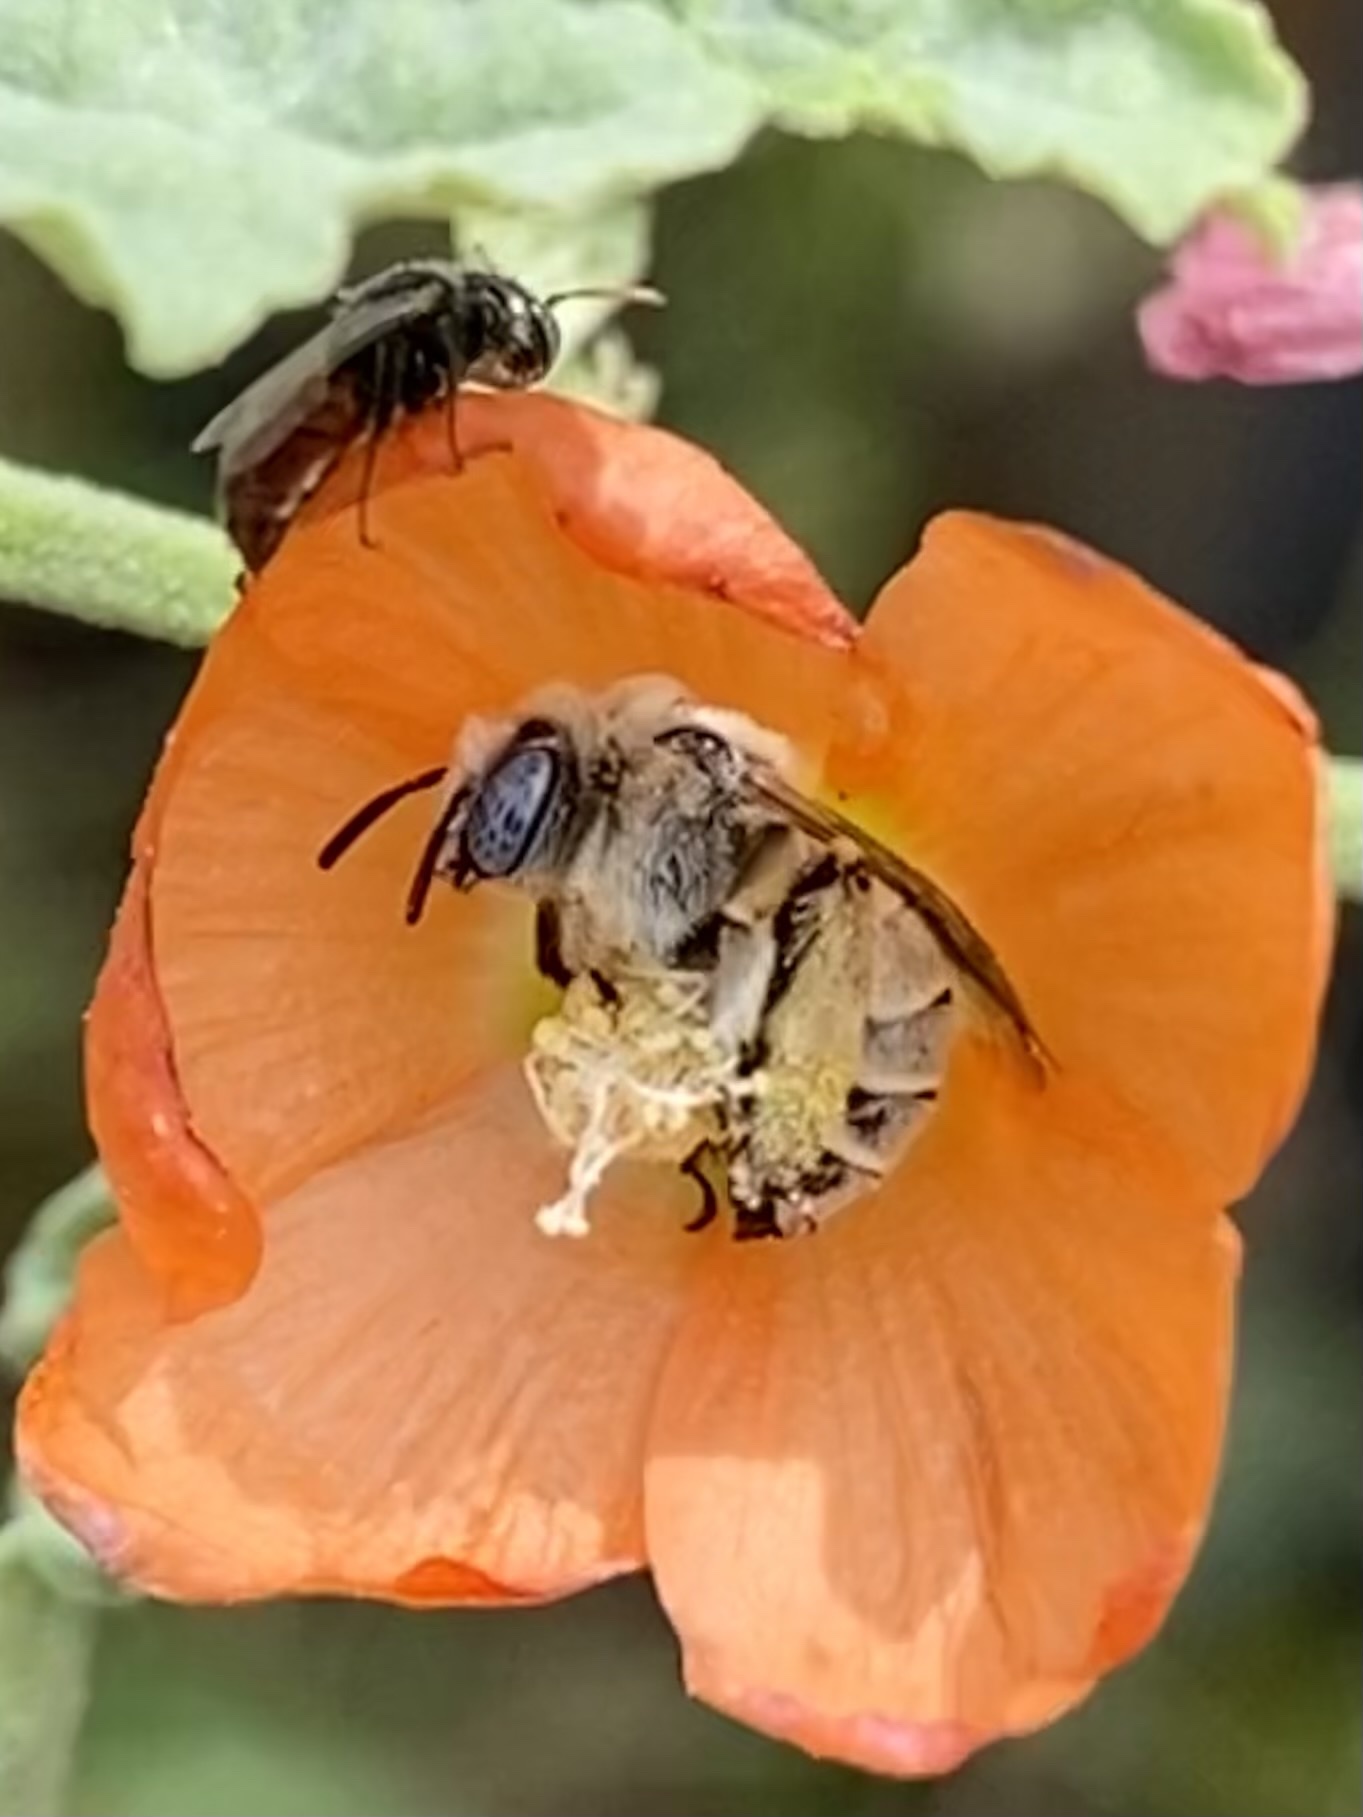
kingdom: Animalia
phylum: Arthropoda
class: Insecta
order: Hymenoptera
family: Andrenidae
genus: Macrotera
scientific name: Macrotera latior
